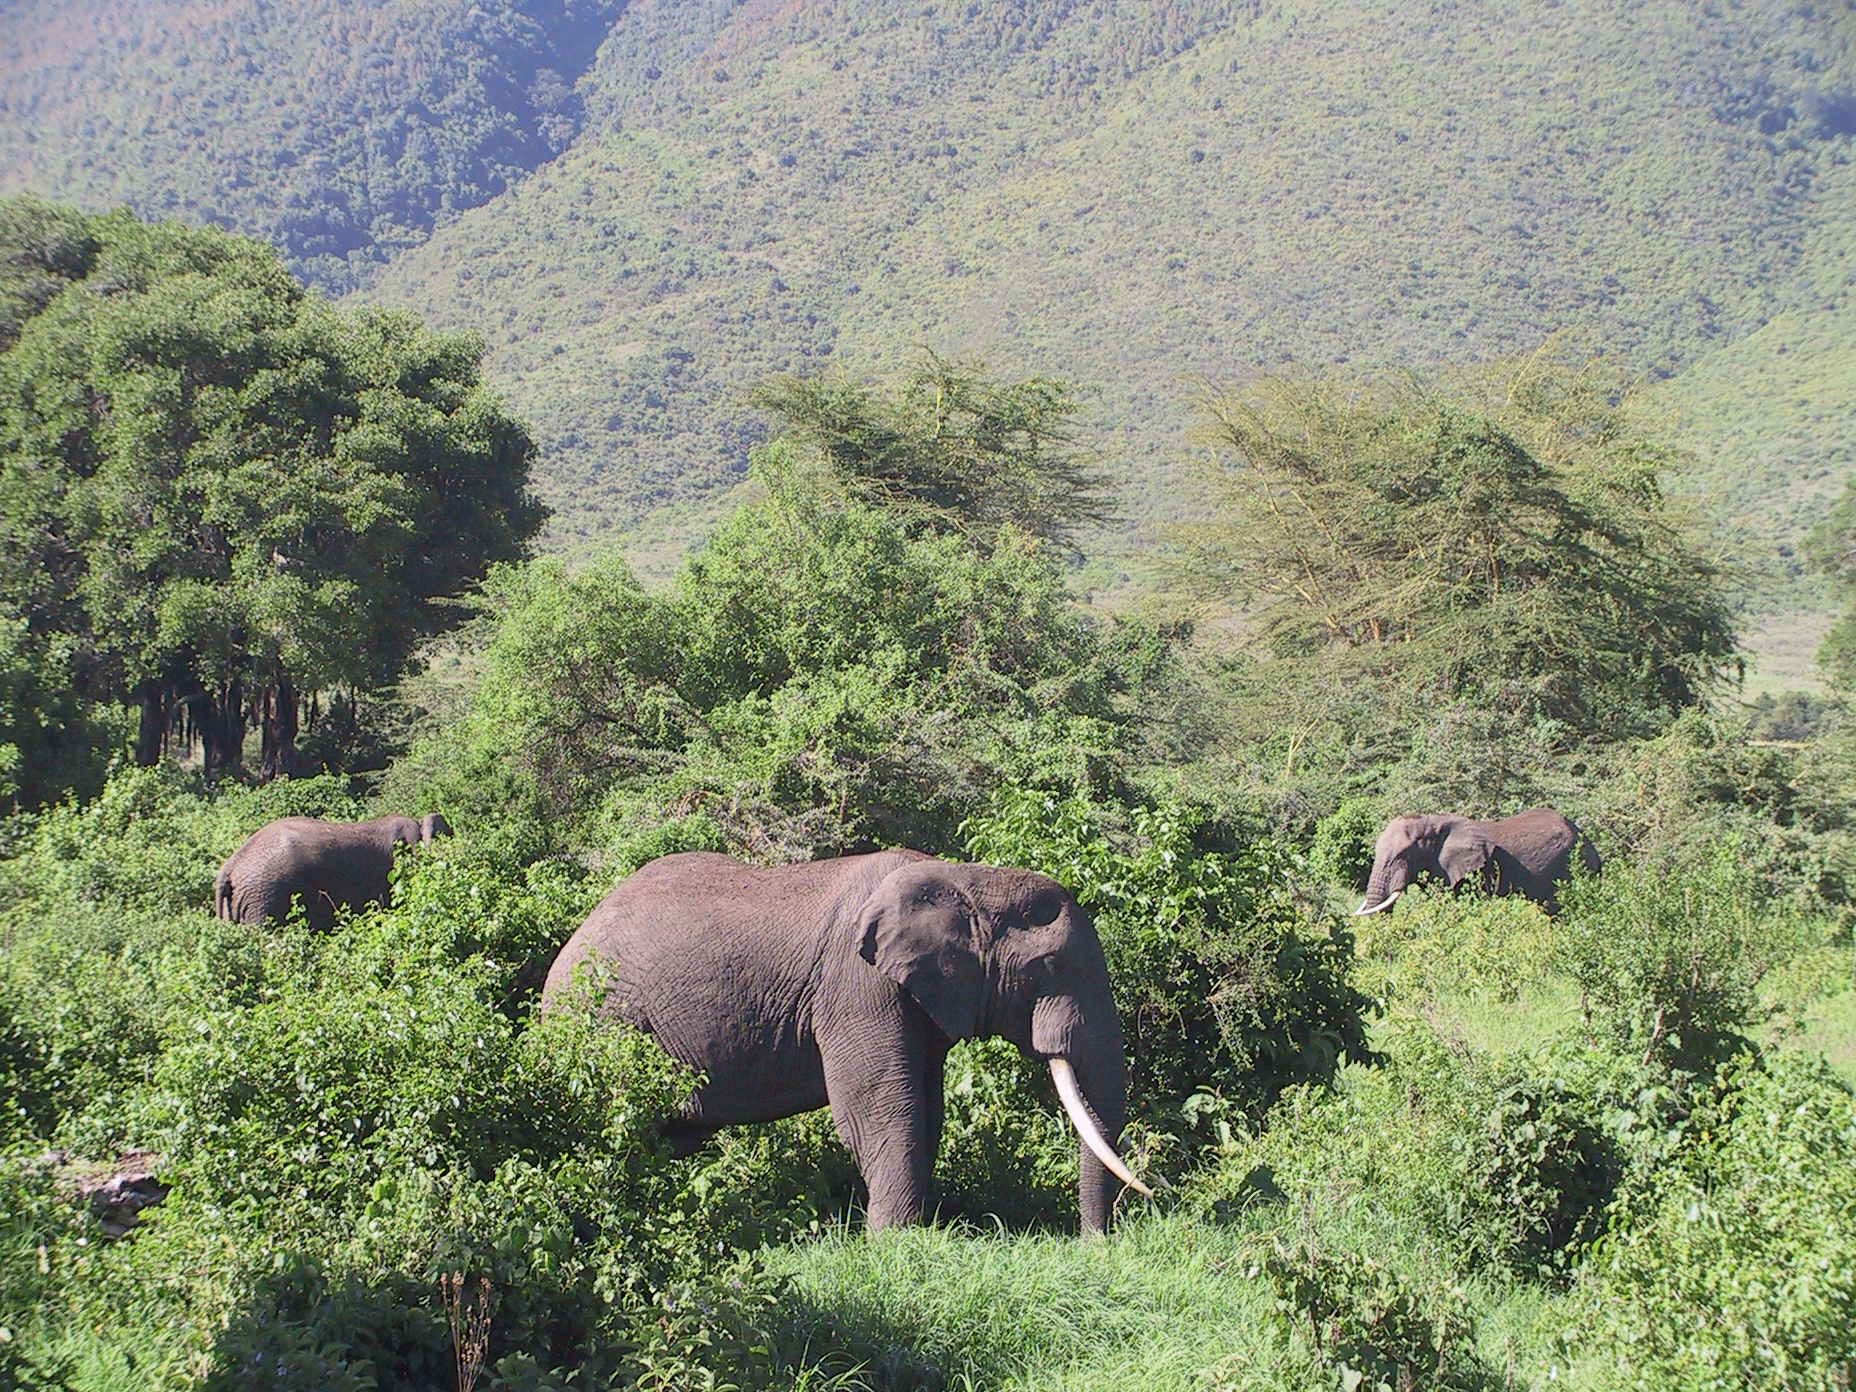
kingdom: Animalia
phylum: Chordata
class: Mammalia
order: Proboscidea
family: Elephantidae
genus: Loxodonta
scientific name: Loxodonta africana
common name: African elephant
